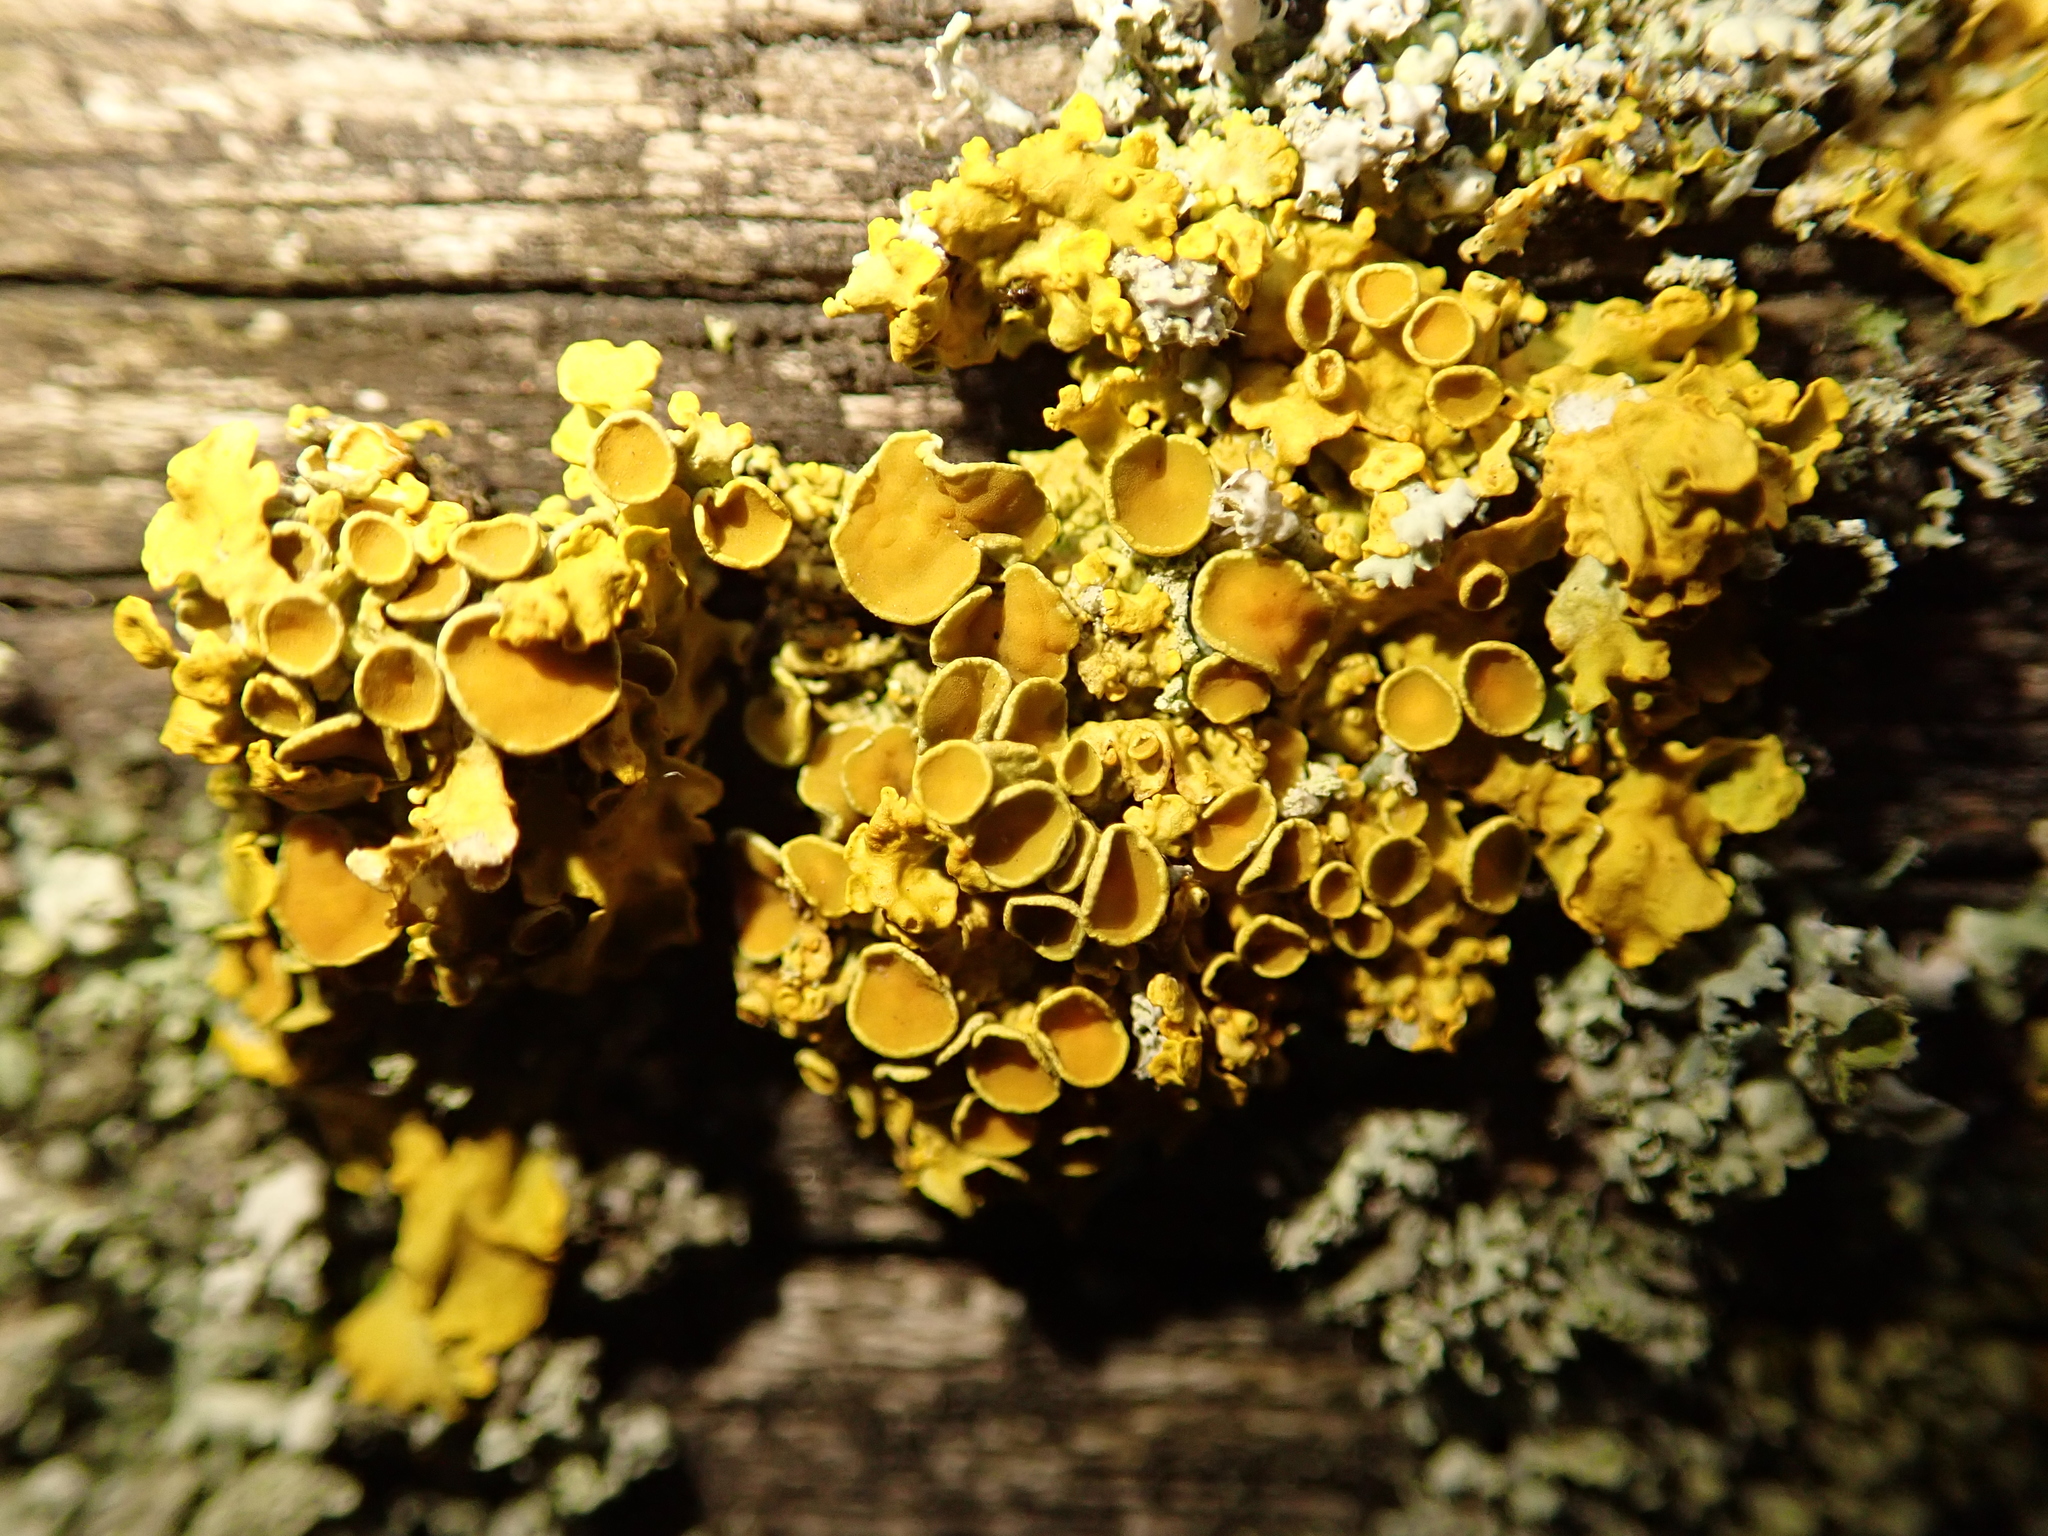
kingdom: Fungi
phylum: Ascomycota
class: Lecanoromycetes
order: Teloschistales
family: Teloschistaceae
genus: Xanthoria
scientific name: Xanthoria parietina
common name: Common orange lichen
